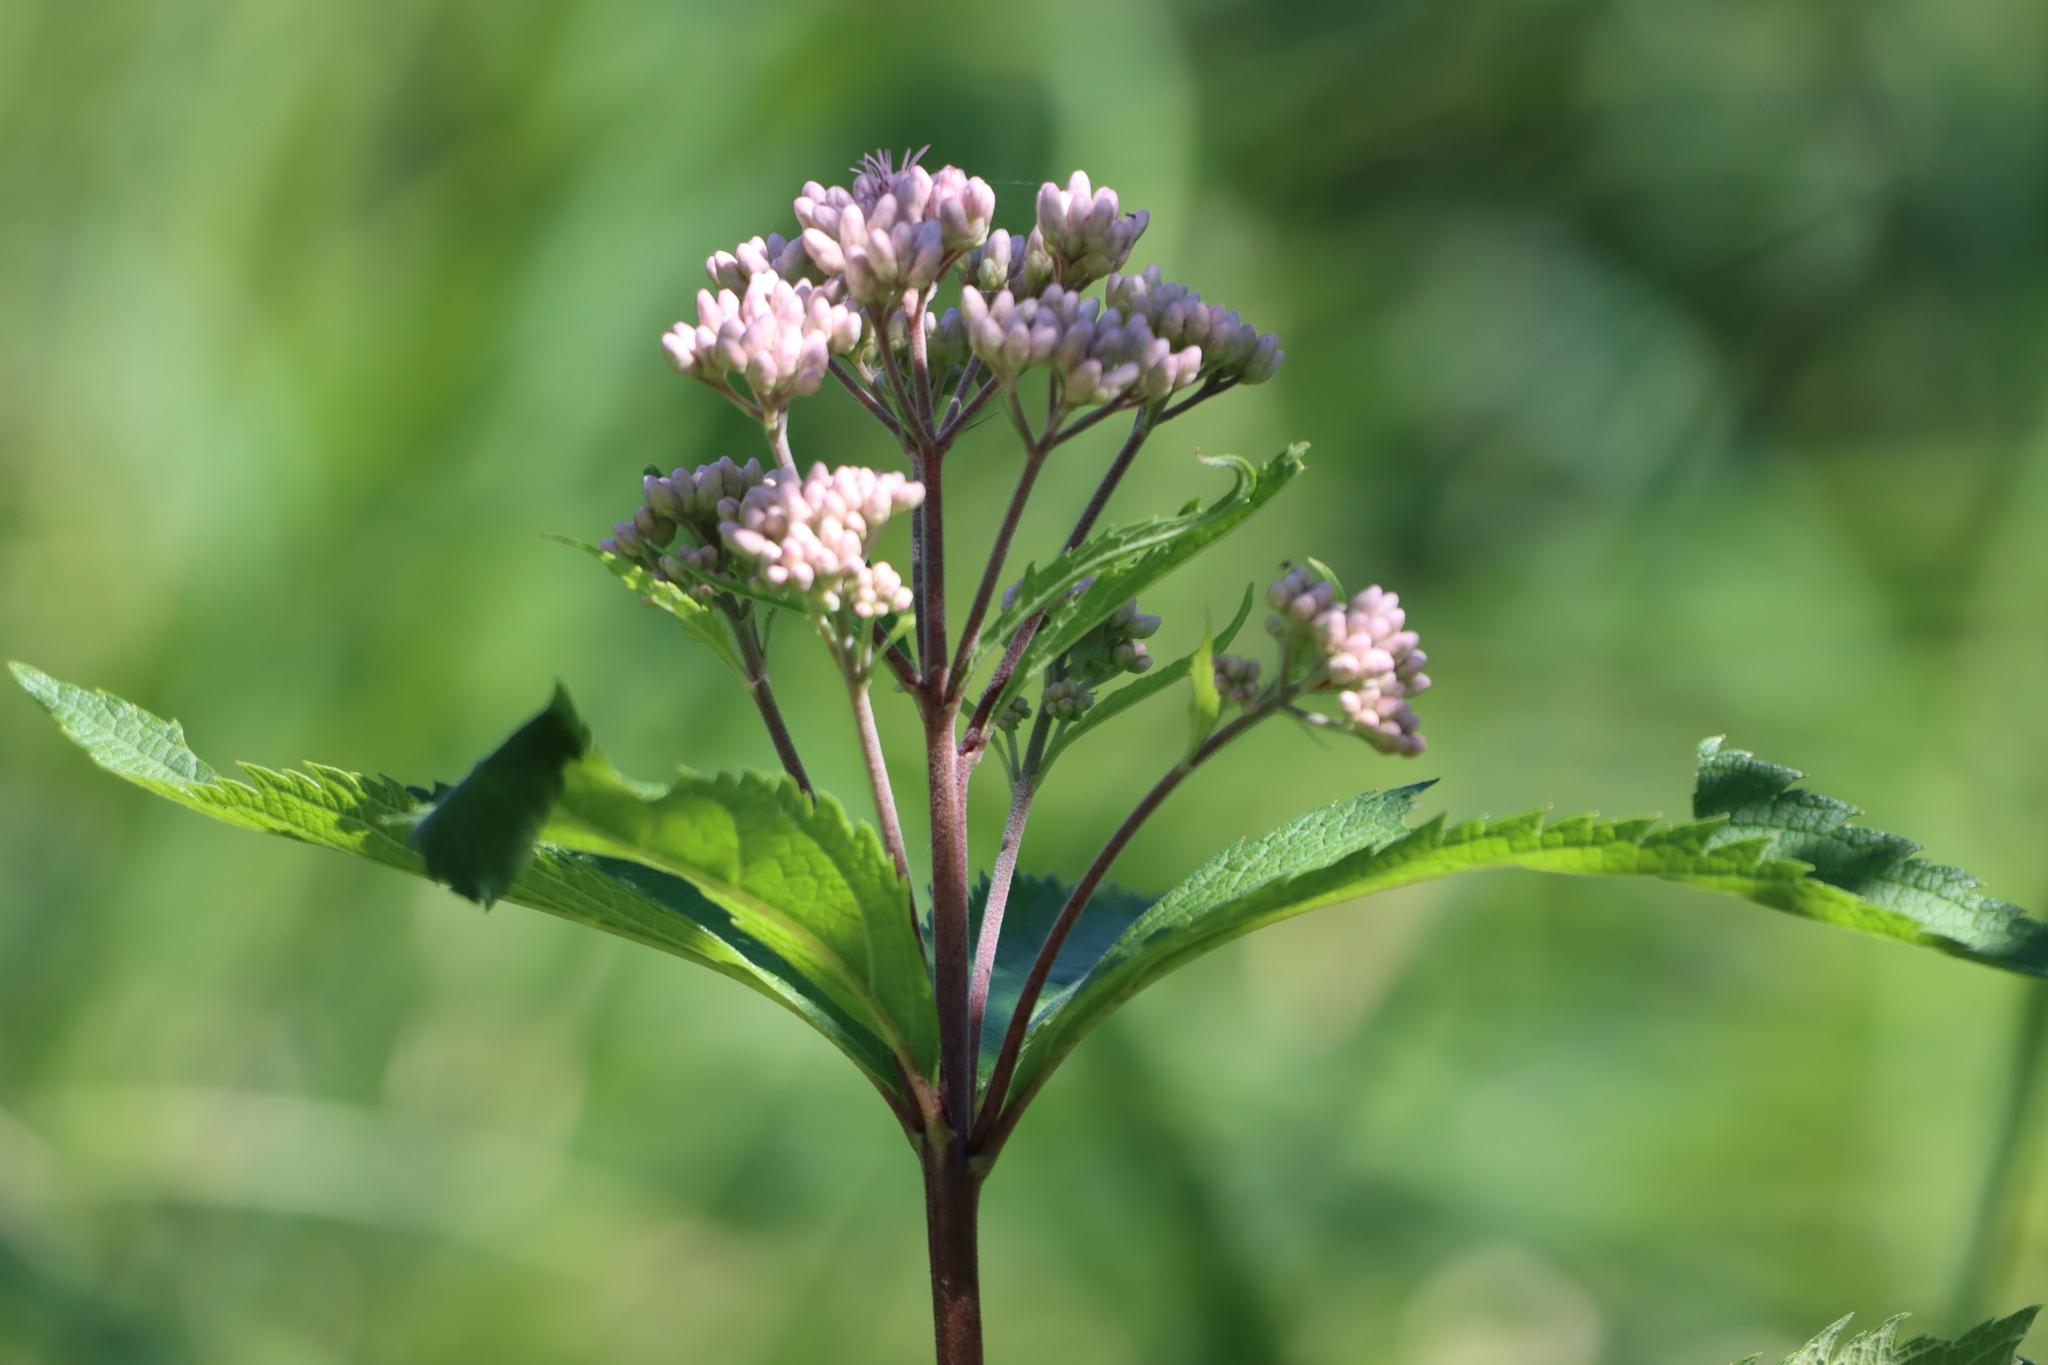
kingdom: Plantae
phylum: Tracheophyta
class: Magnoliopsida
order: Asterales
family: Asteraceae
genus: Eutrochium
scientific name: Eutrochium maculatum
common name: Spotted joe pye weed
